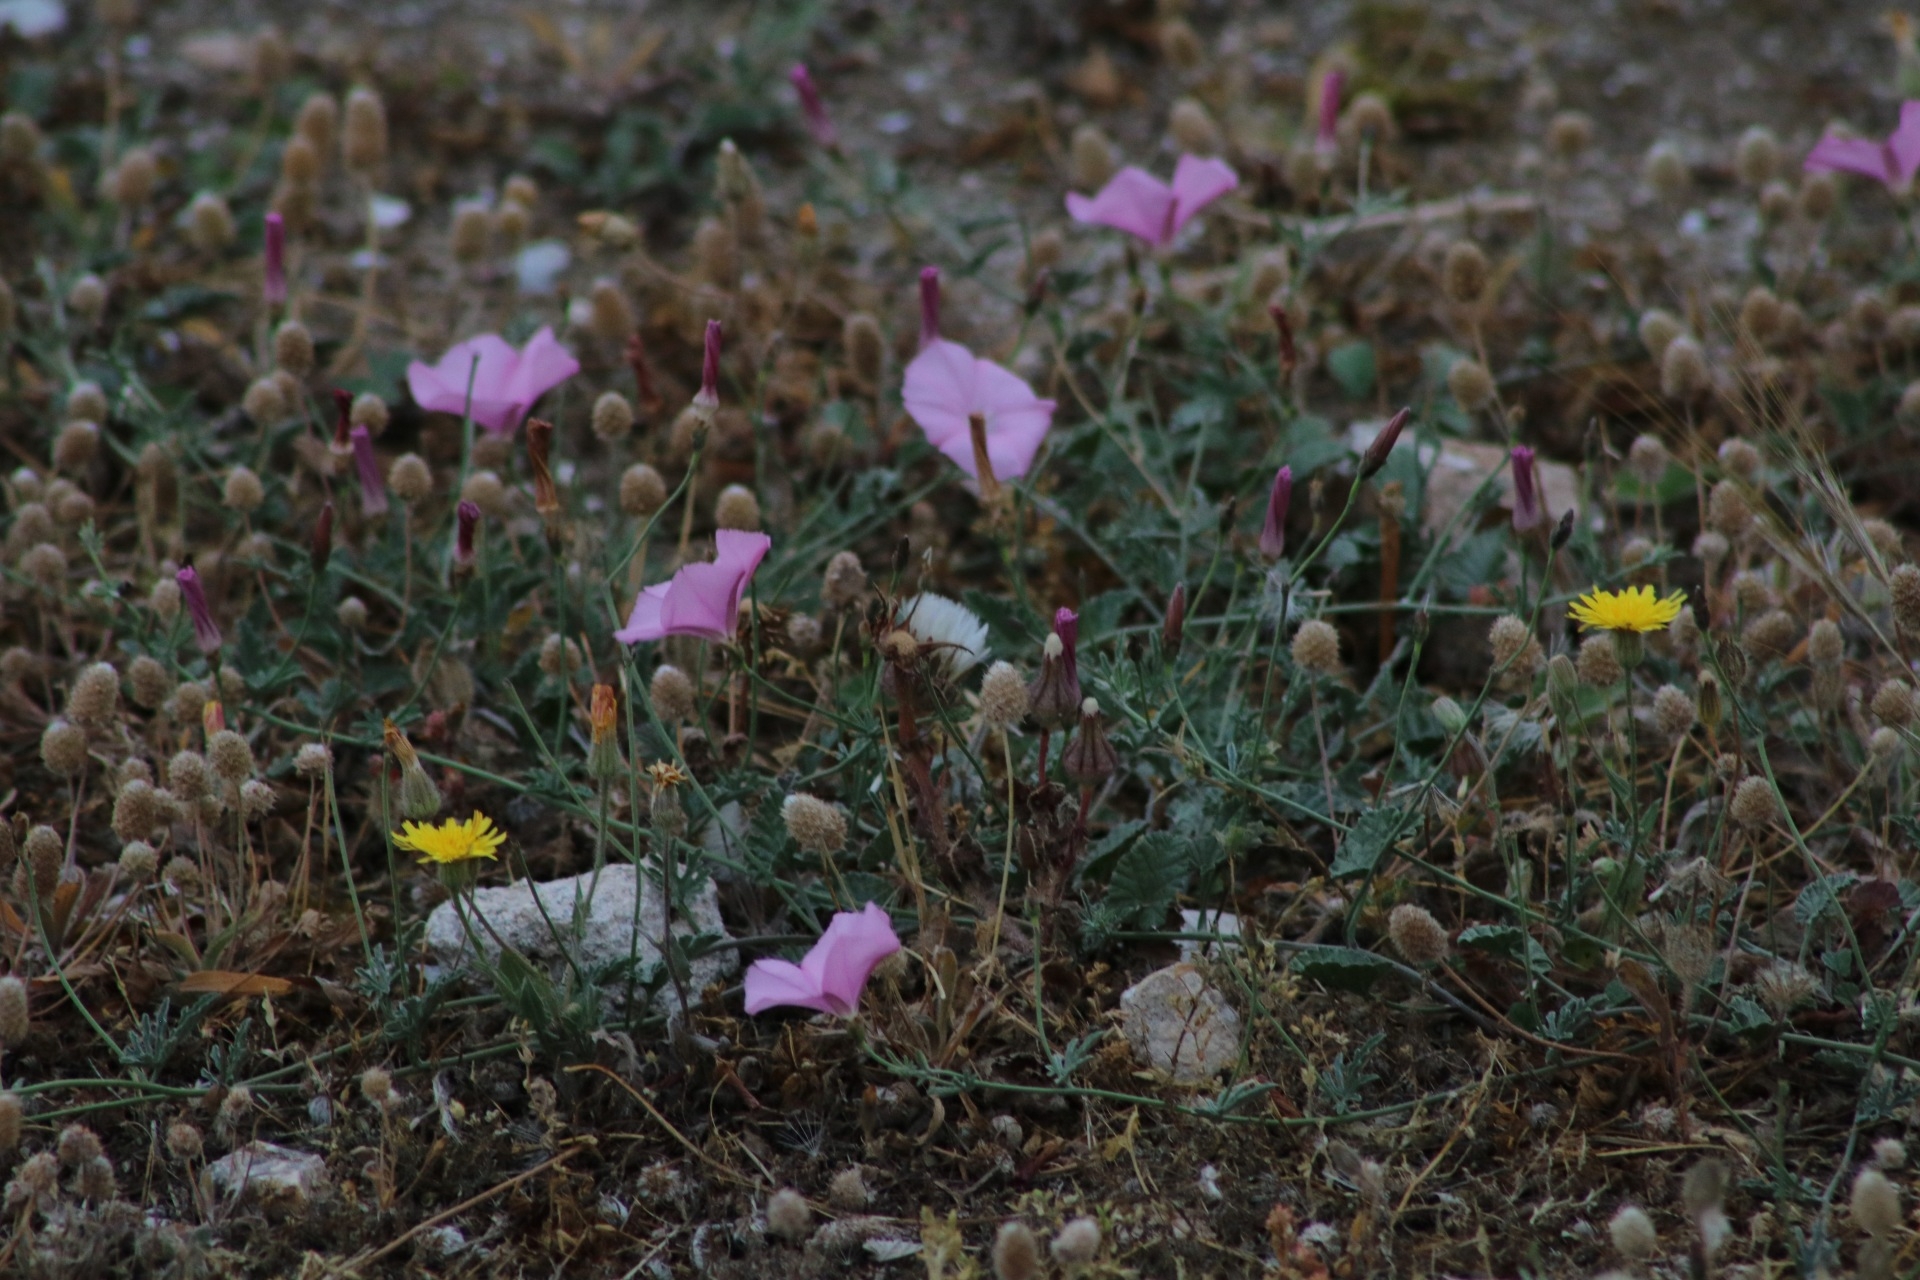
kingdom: Plantae
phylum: Tracheophyta
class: Magnoliopsida
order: Solanales
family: Convolvulaceae
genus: Convolvulus
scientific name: Convolvulus elegantissimus
